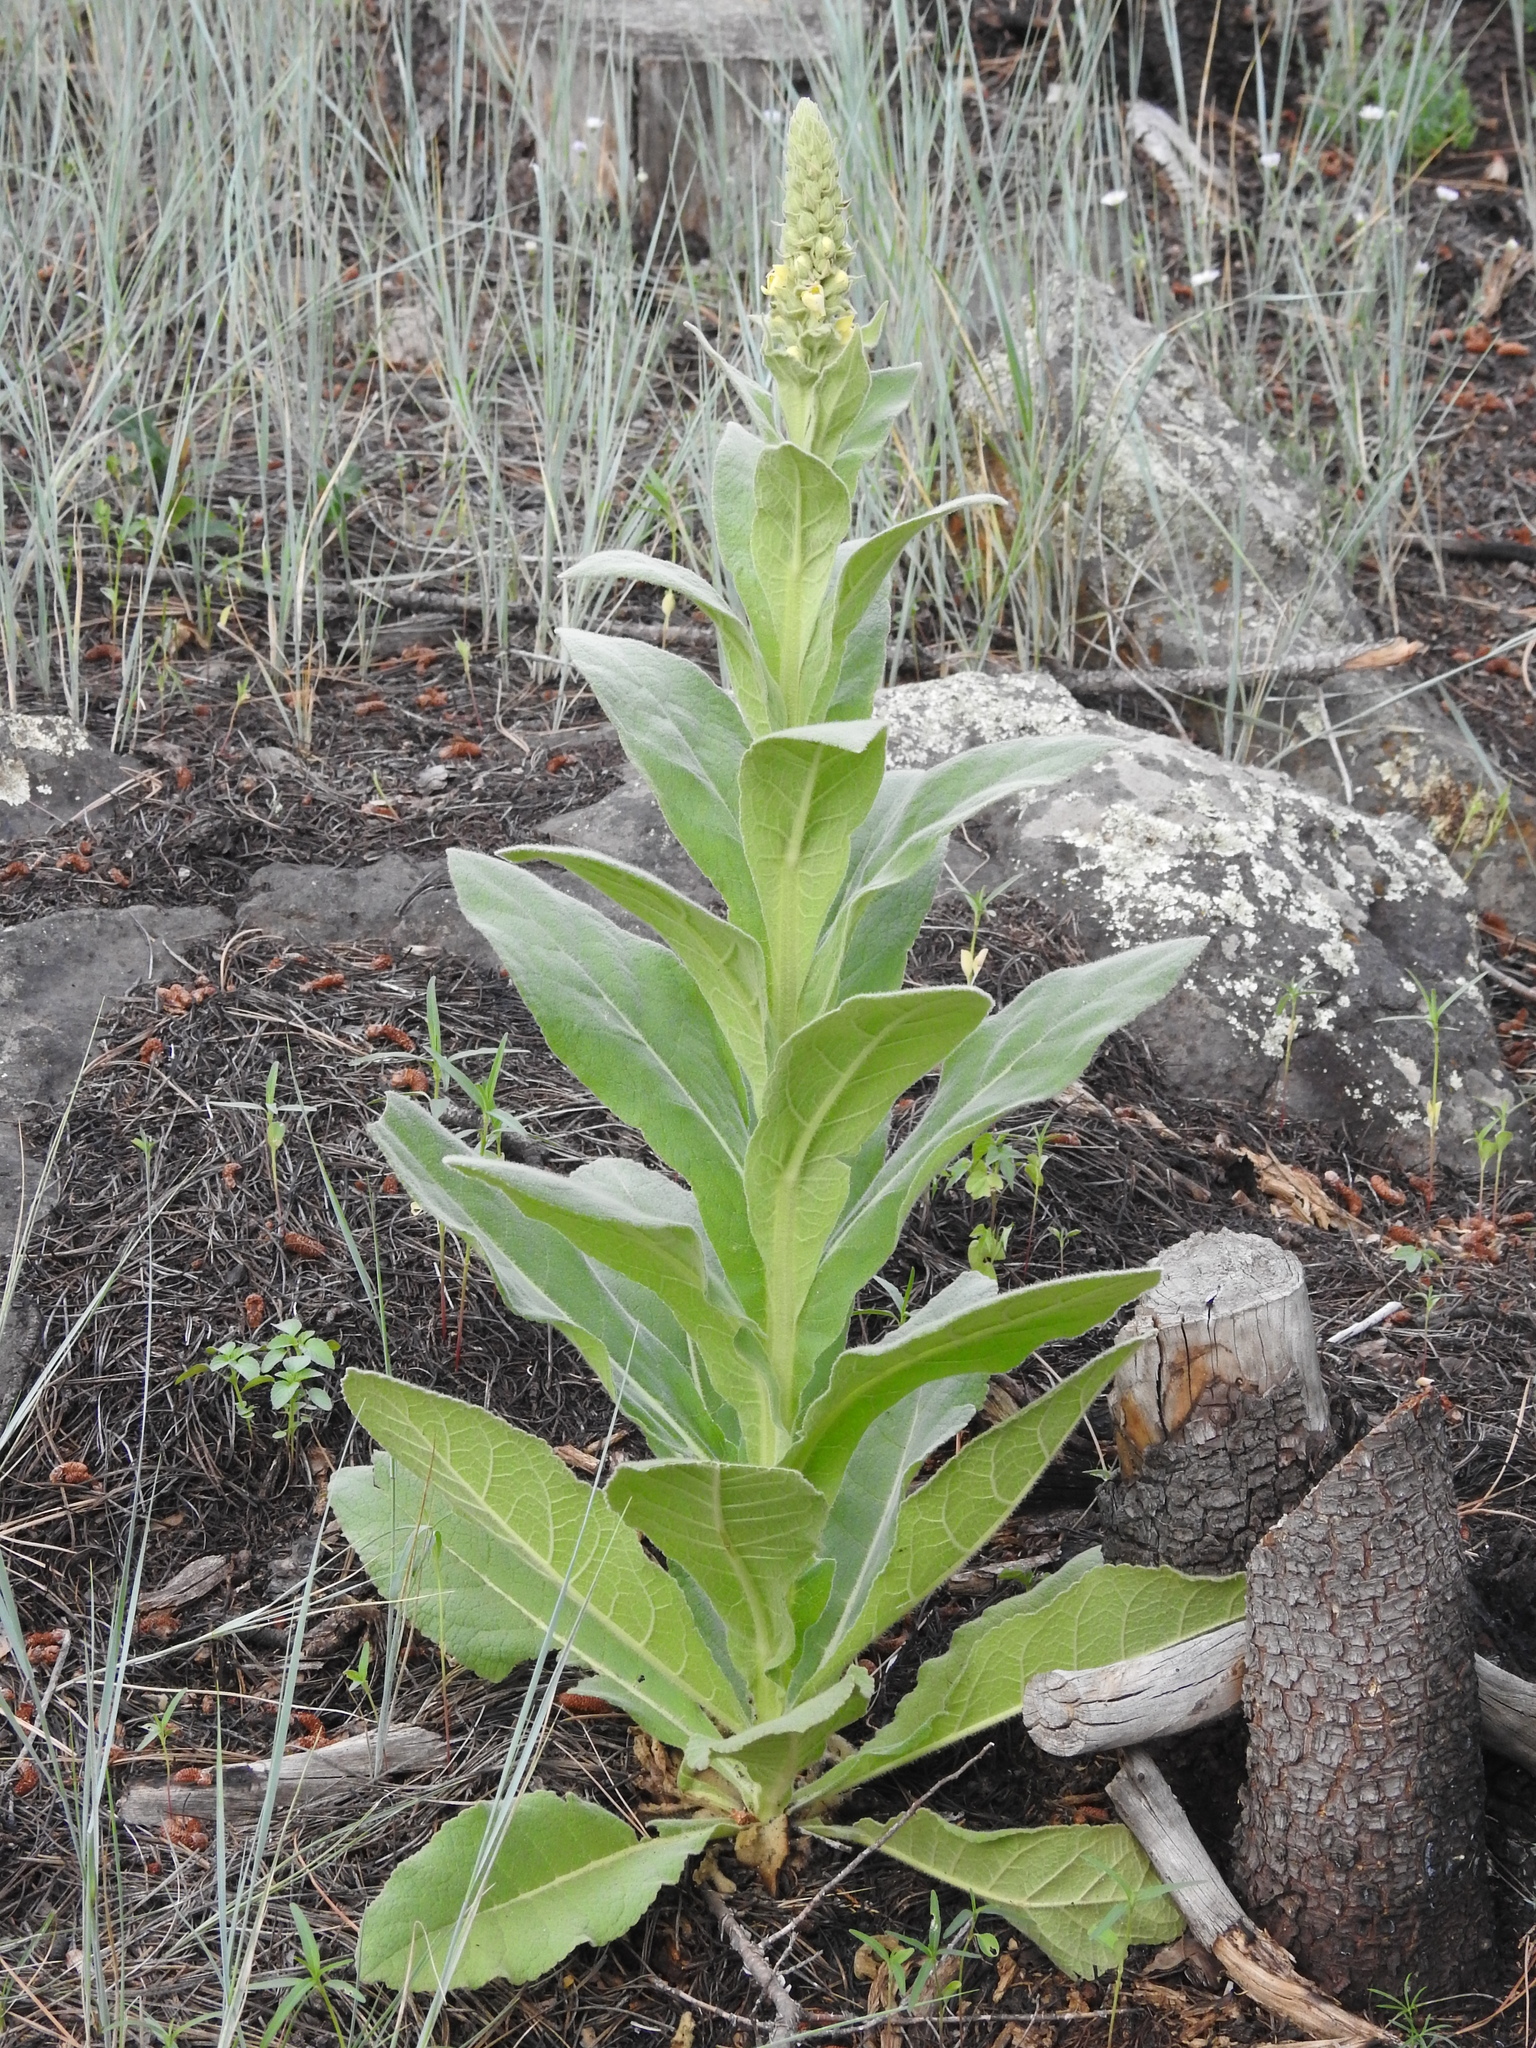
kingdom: Plantae
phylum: Tracheophyta
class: Magnoliopsida
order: Lamiales
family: Scrophulariaceae
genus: Verbascum
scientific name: Verbascum thapsus
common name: Common mullein
